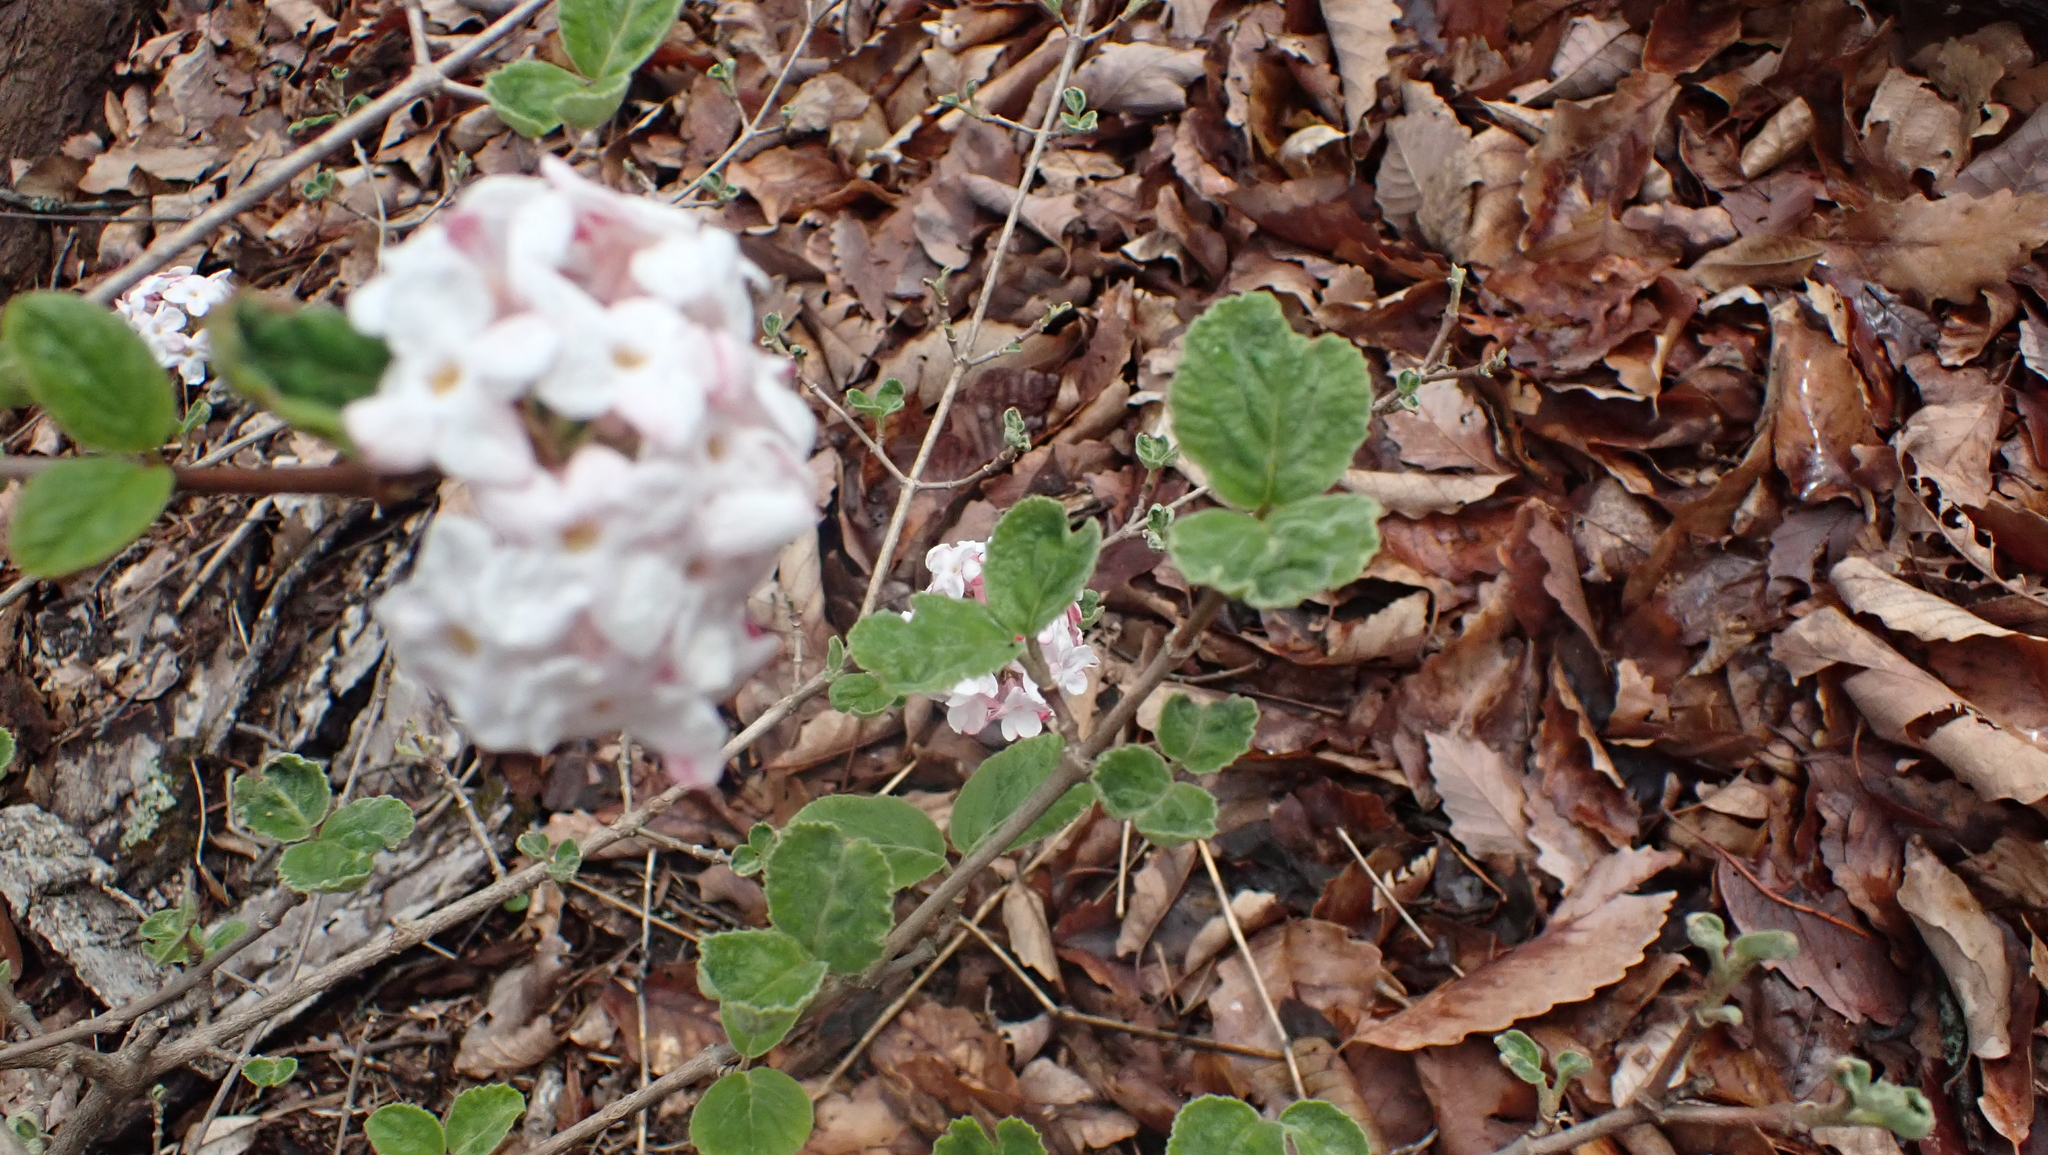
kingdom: Plantae
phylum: Tracheophyta
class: Magnoliopsida
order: Dipsacales
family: Viburnaceae
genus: Viburnum
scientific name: Viburnum carlesii
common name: Koreanspice viburnum
